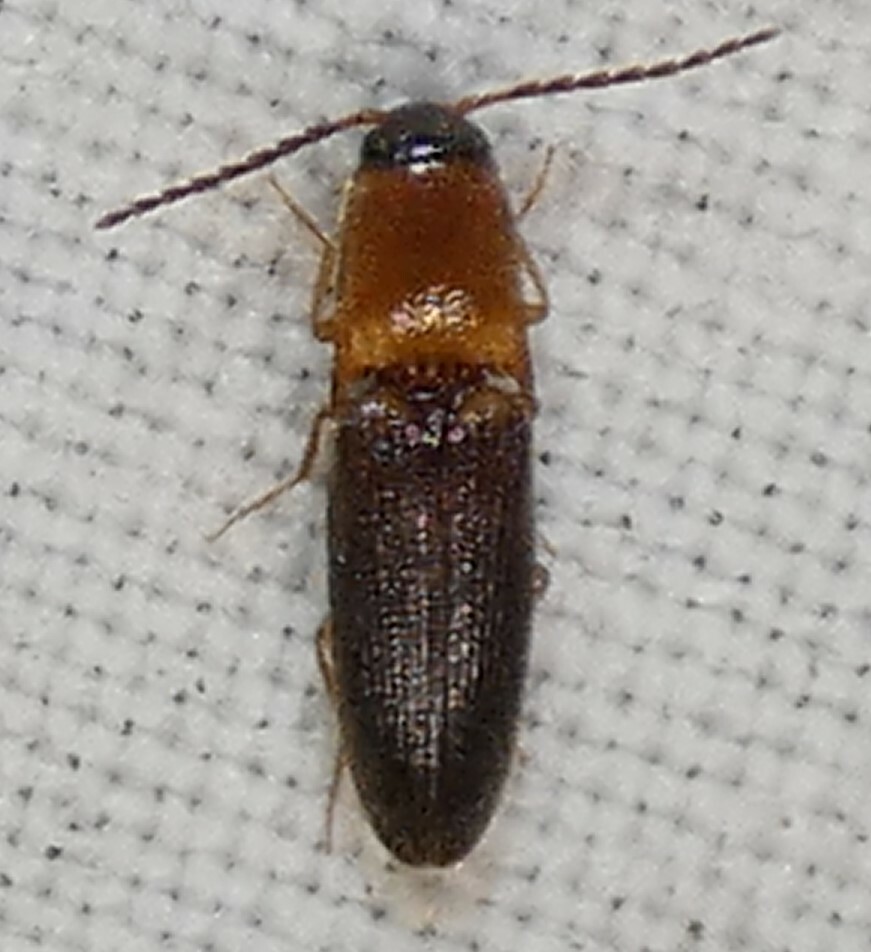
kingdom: Animalia
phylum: Arthropoda
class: Insecta
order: Coleoptera
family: Elateridae
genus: Megapenthes
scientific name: Megapenthes
